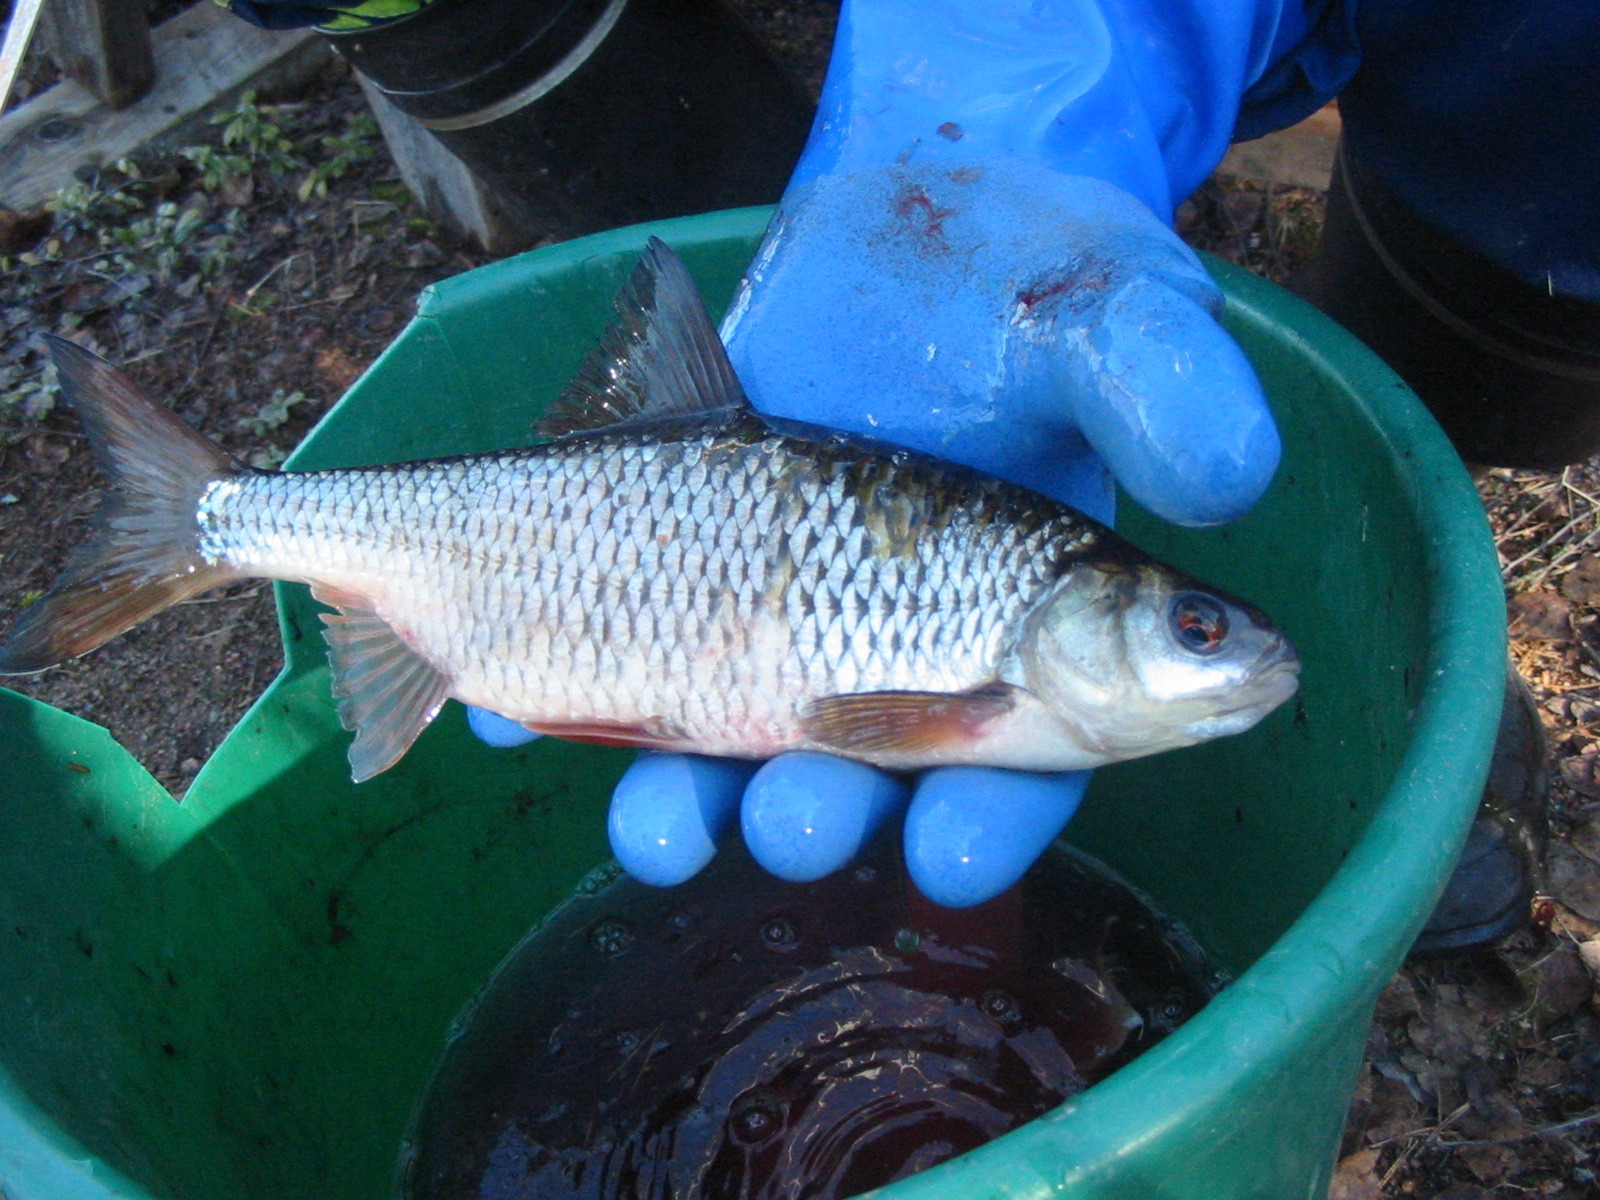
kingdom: Animalia
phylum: Chordata
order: Cypriniformes
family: Cyprinidae
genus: Rutilus
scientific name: Rutilus rutilus
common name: Roach
